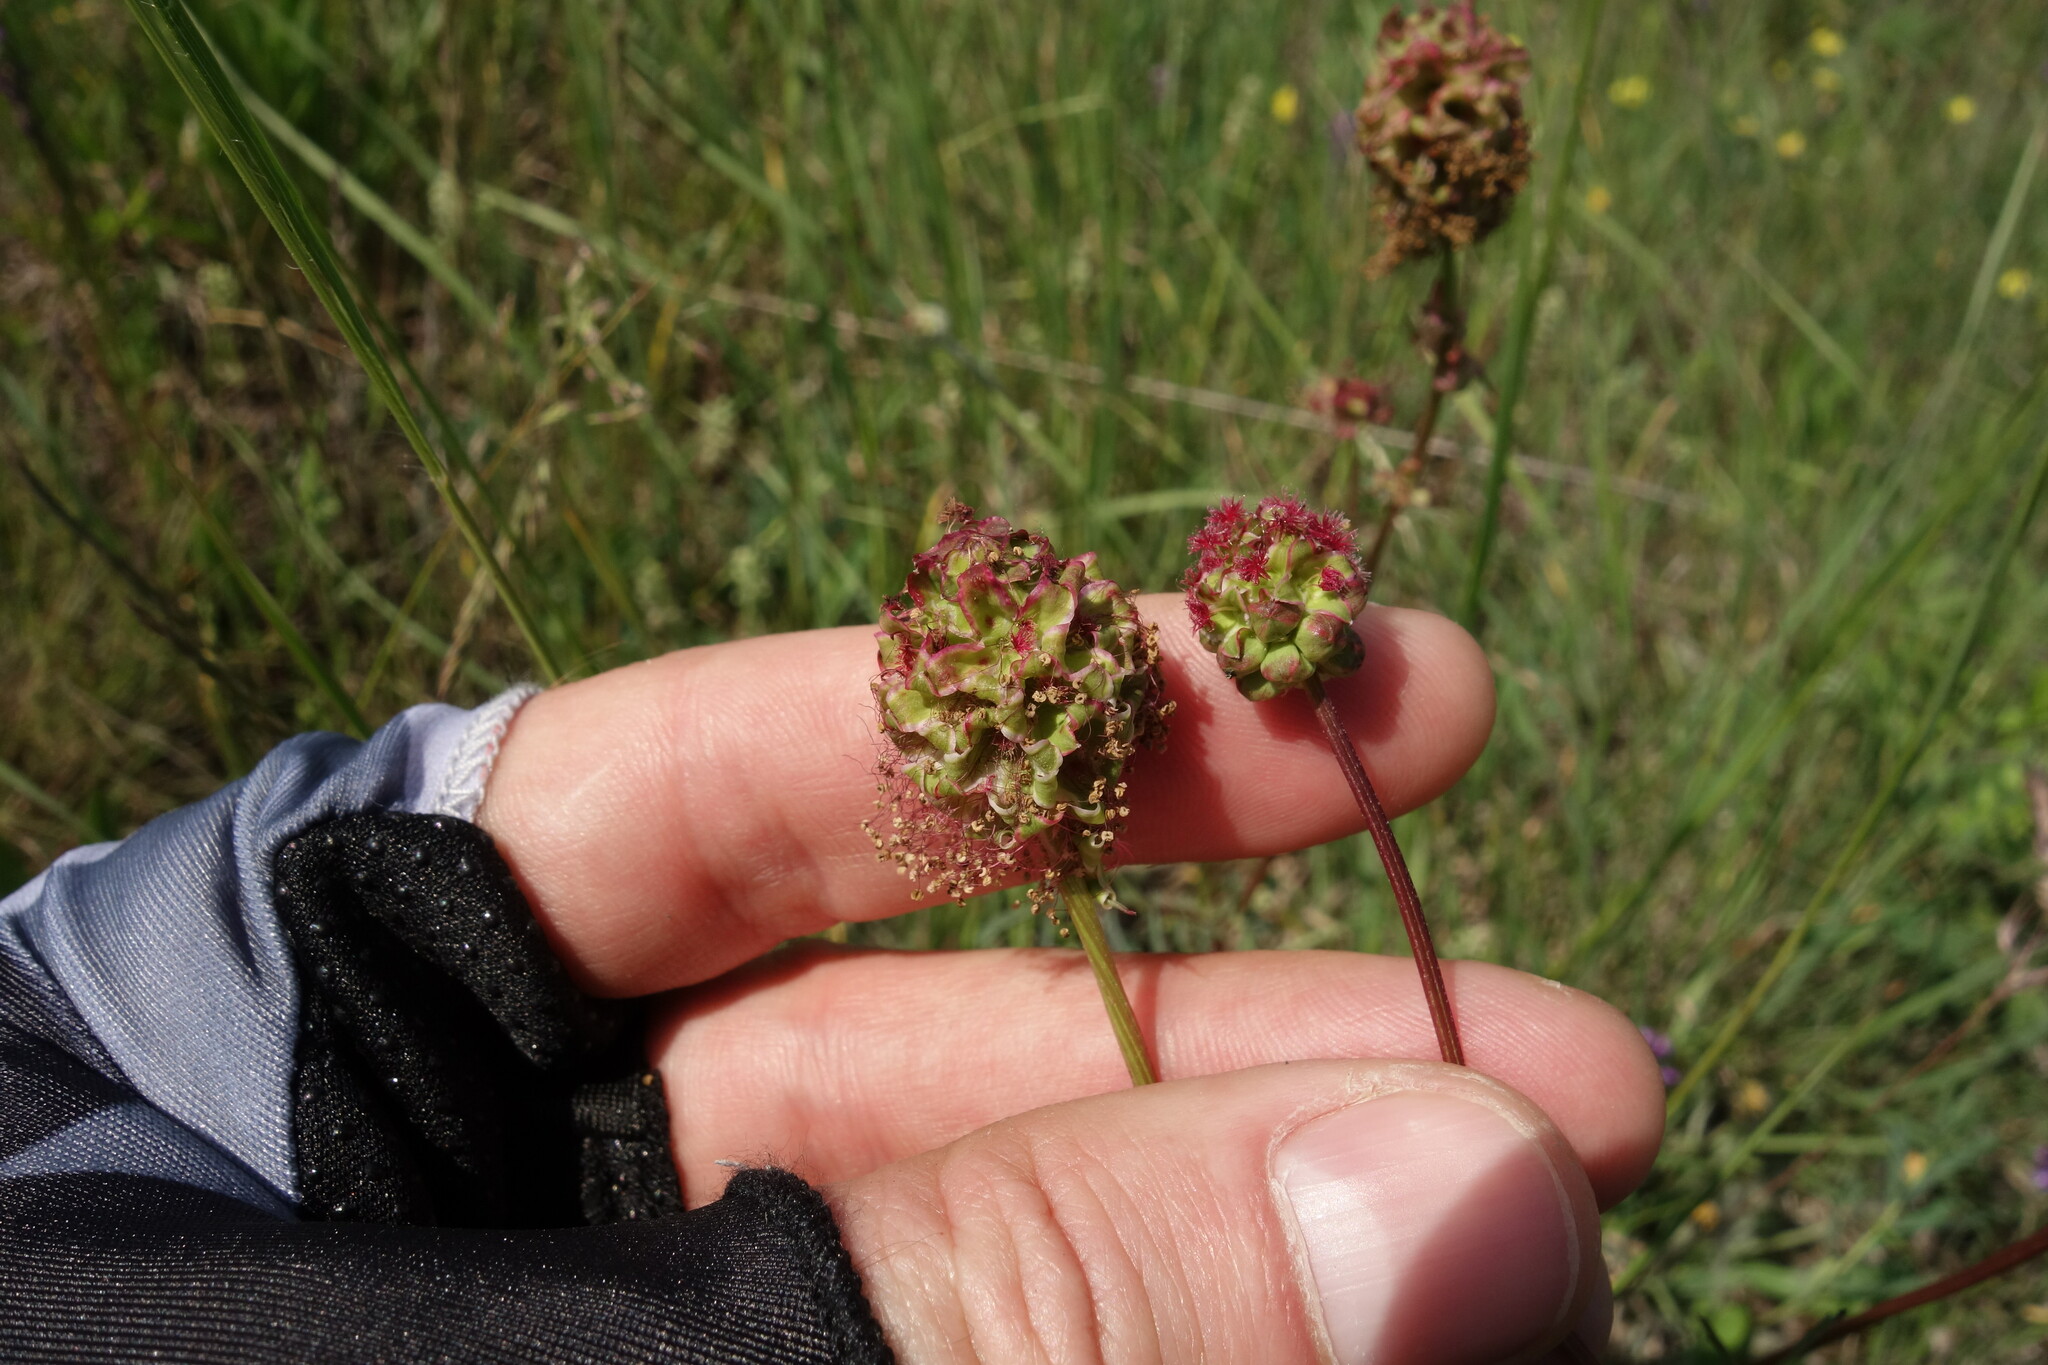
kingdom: Plantae
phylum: Tracheophyta
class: Magnoliopsida
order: Rosales
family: Rosaceae
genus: Poterium
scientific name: Poterium sanguisorba
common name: Salad burnet
